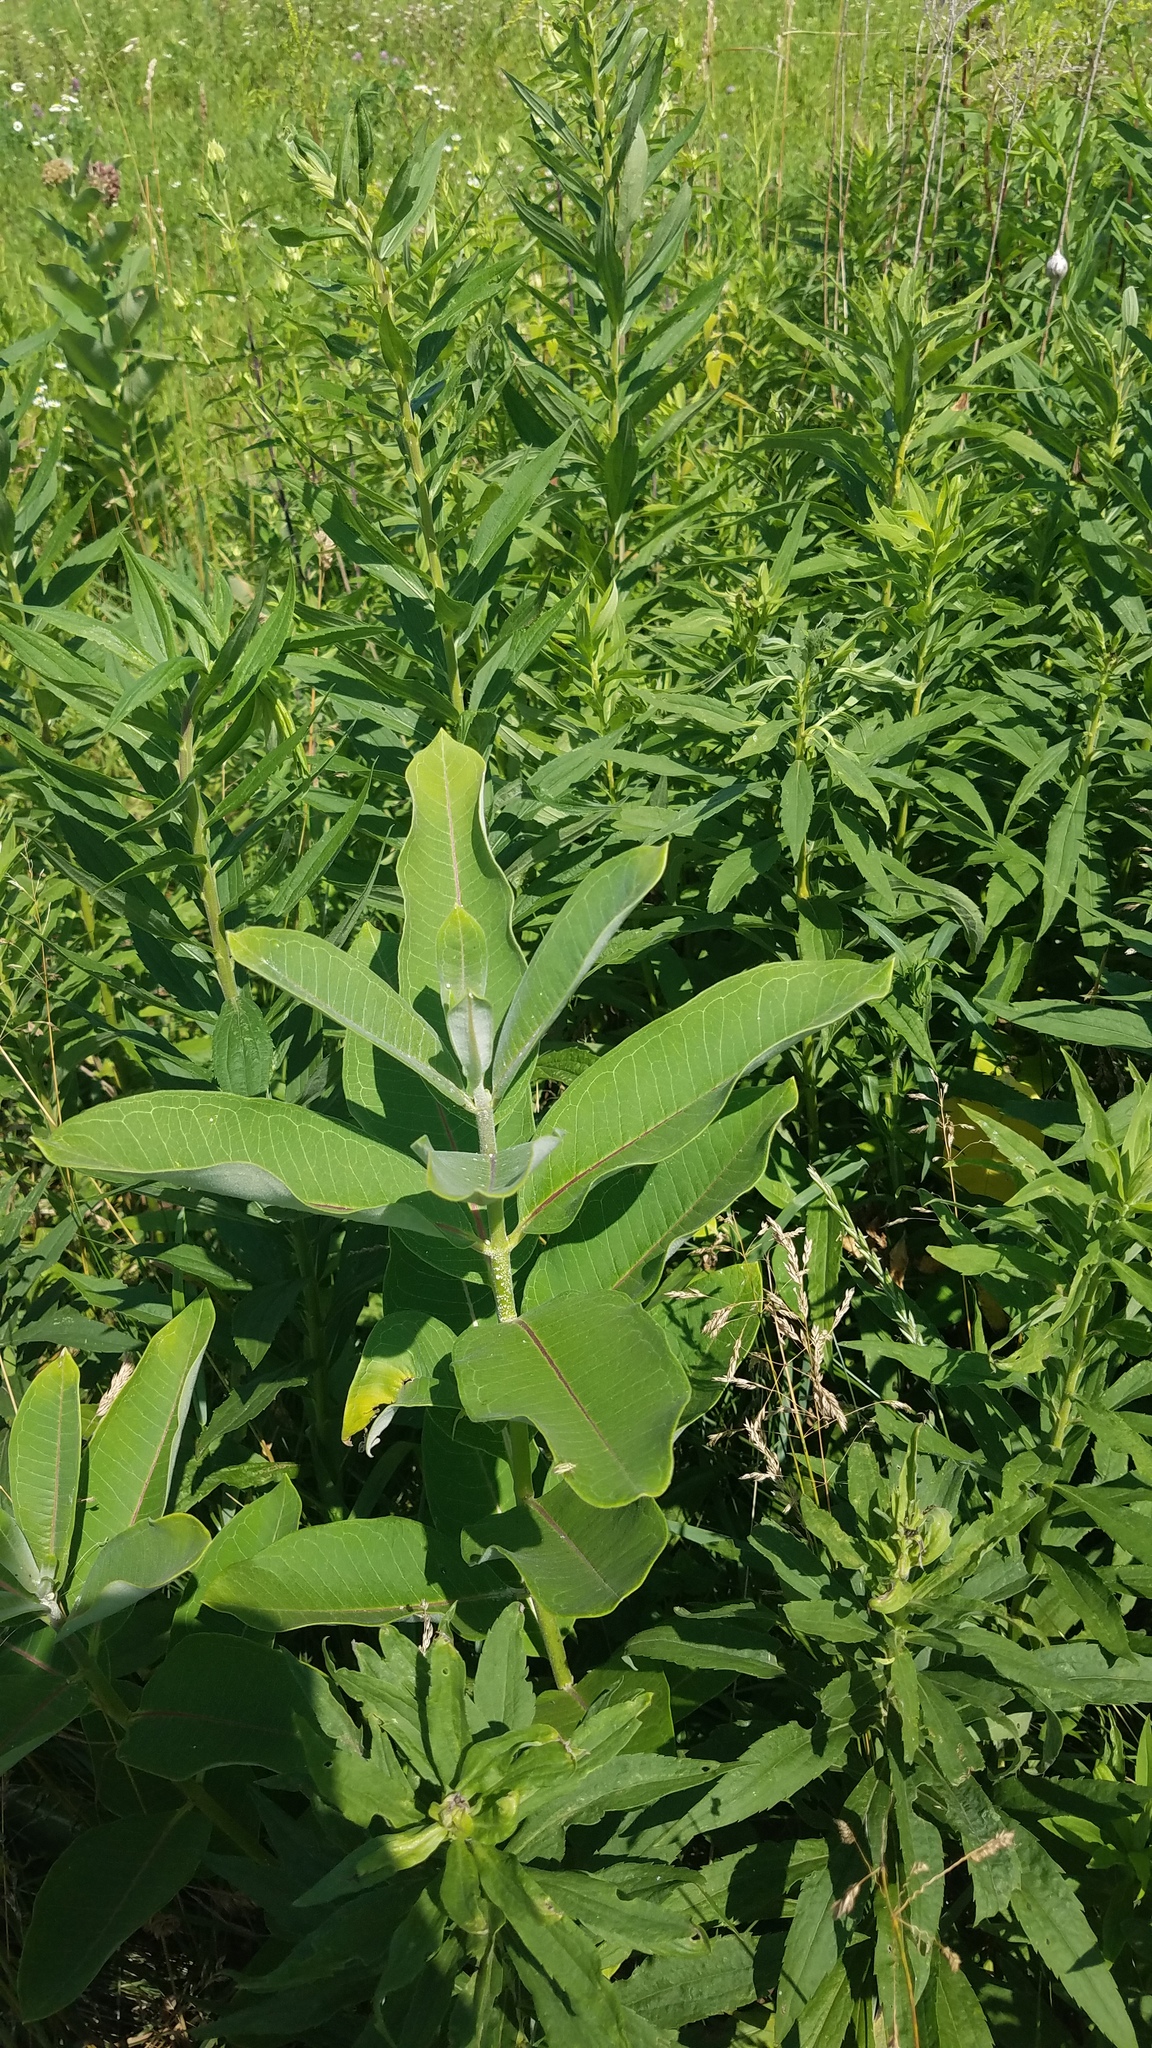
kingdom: Plantae
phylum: Tracheophyta
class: Magnoliopsida
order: Gentianales
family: Apocynaceae
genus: Asclepias
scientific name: Asclepias syriaca
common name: Common milkweed
